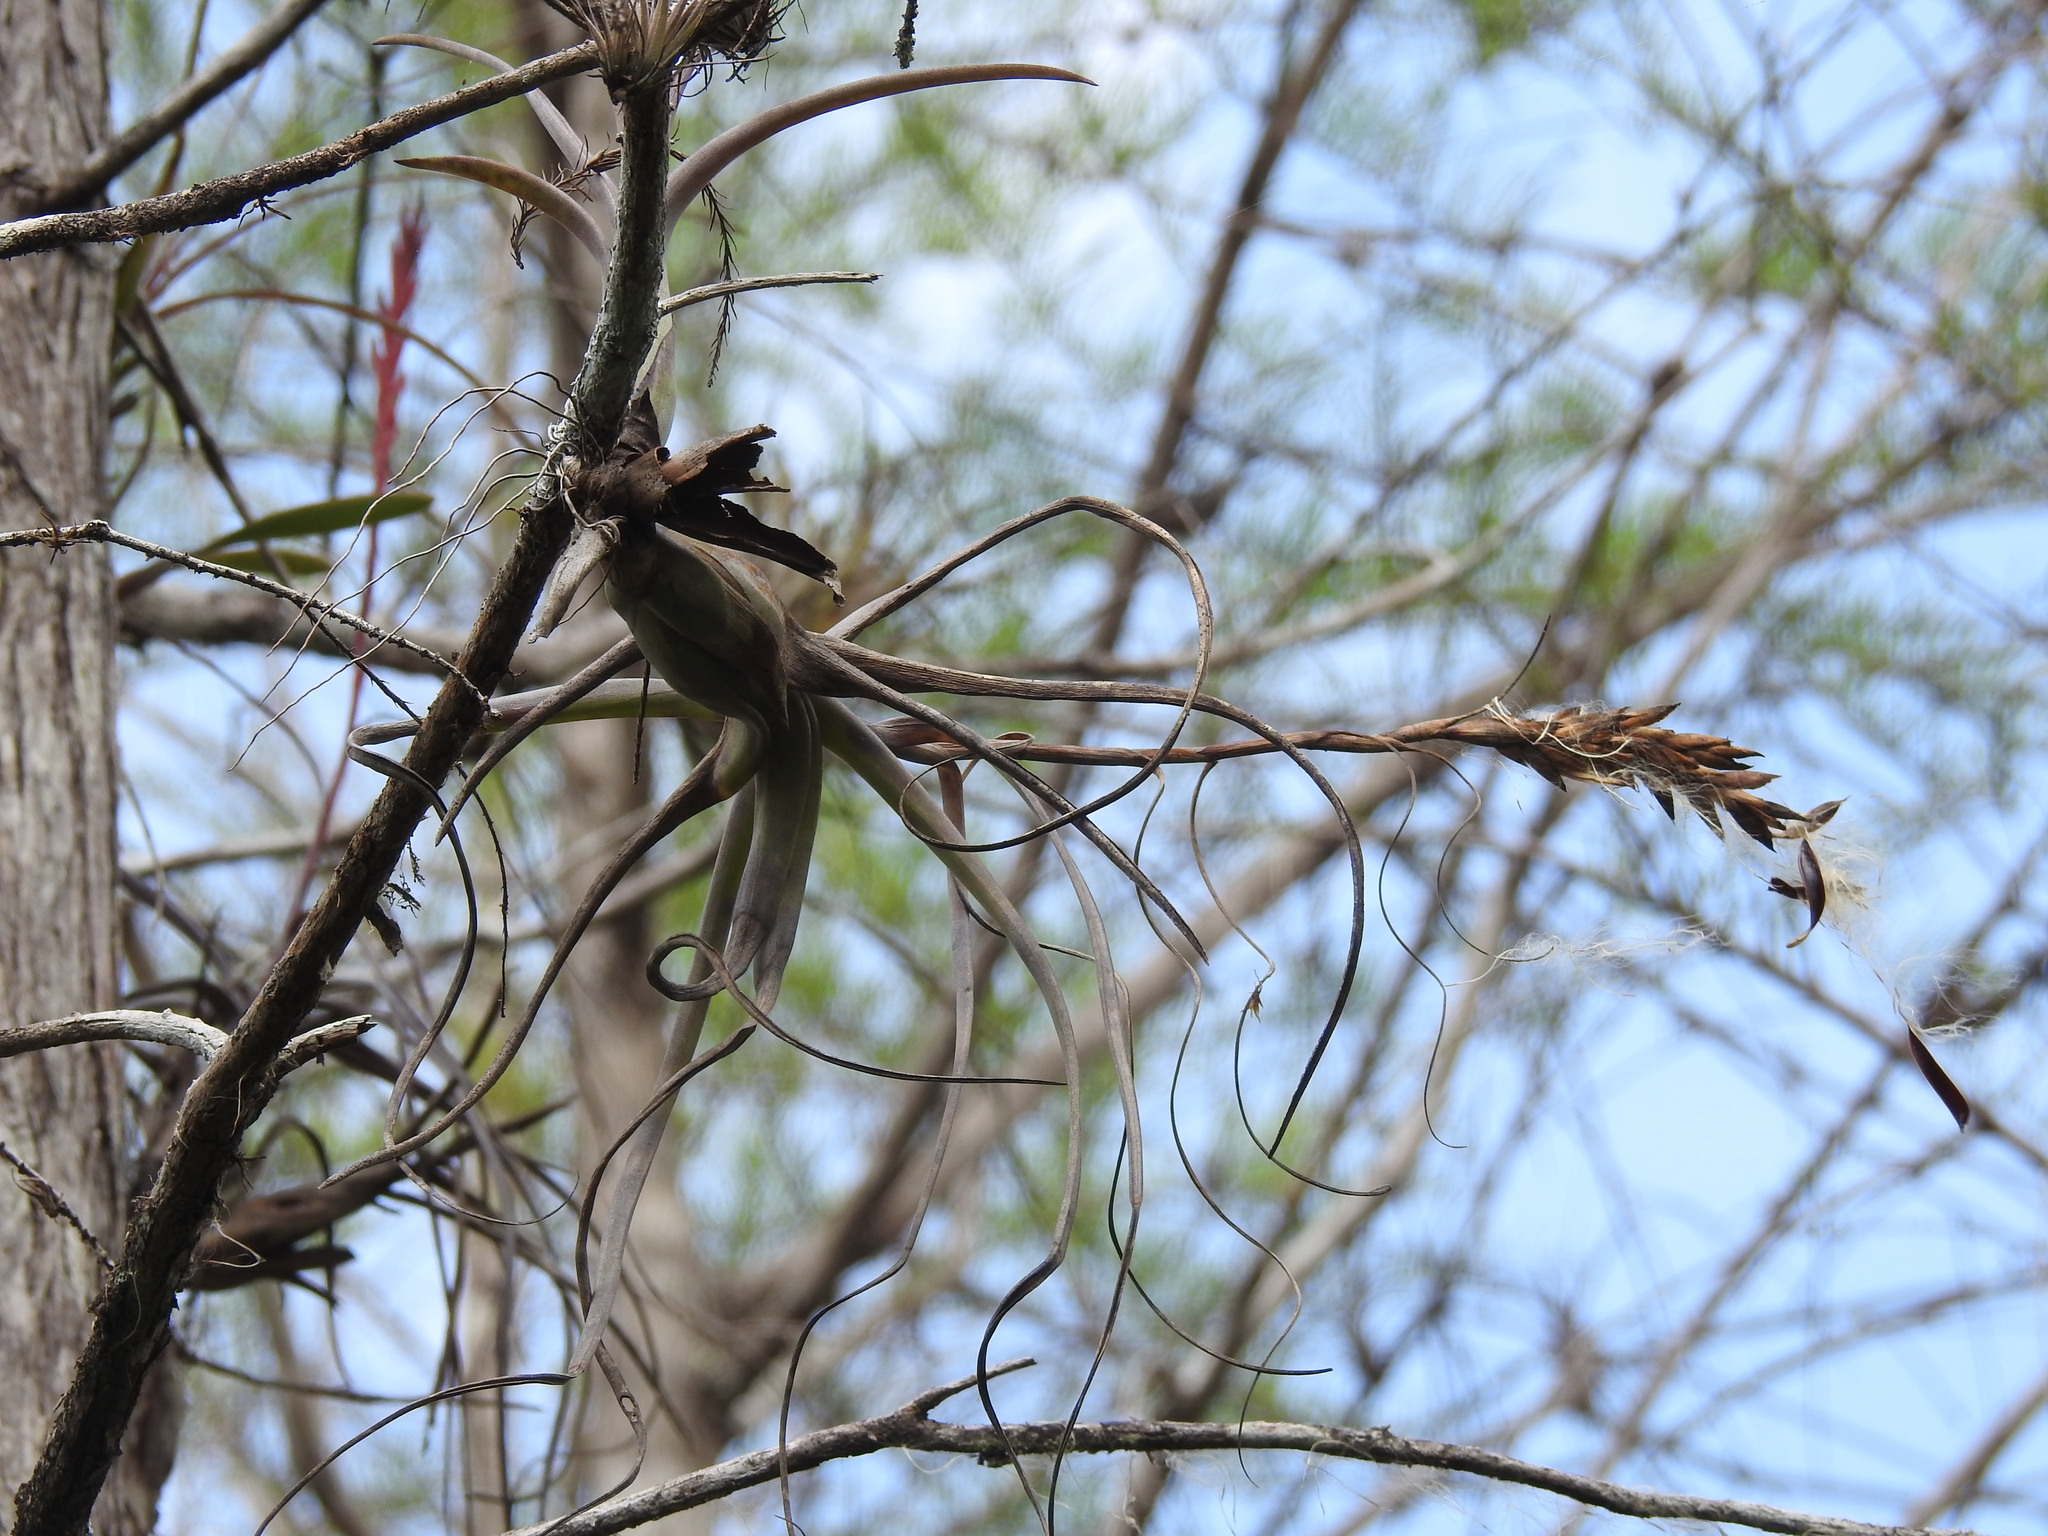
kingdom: Plantae
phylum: Tracheophyta
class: Liliopsida
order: Poales
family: Bromeliaceae
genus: Tillandsia
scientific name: Tillandsia balbisiana
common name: Northern needleleaf
